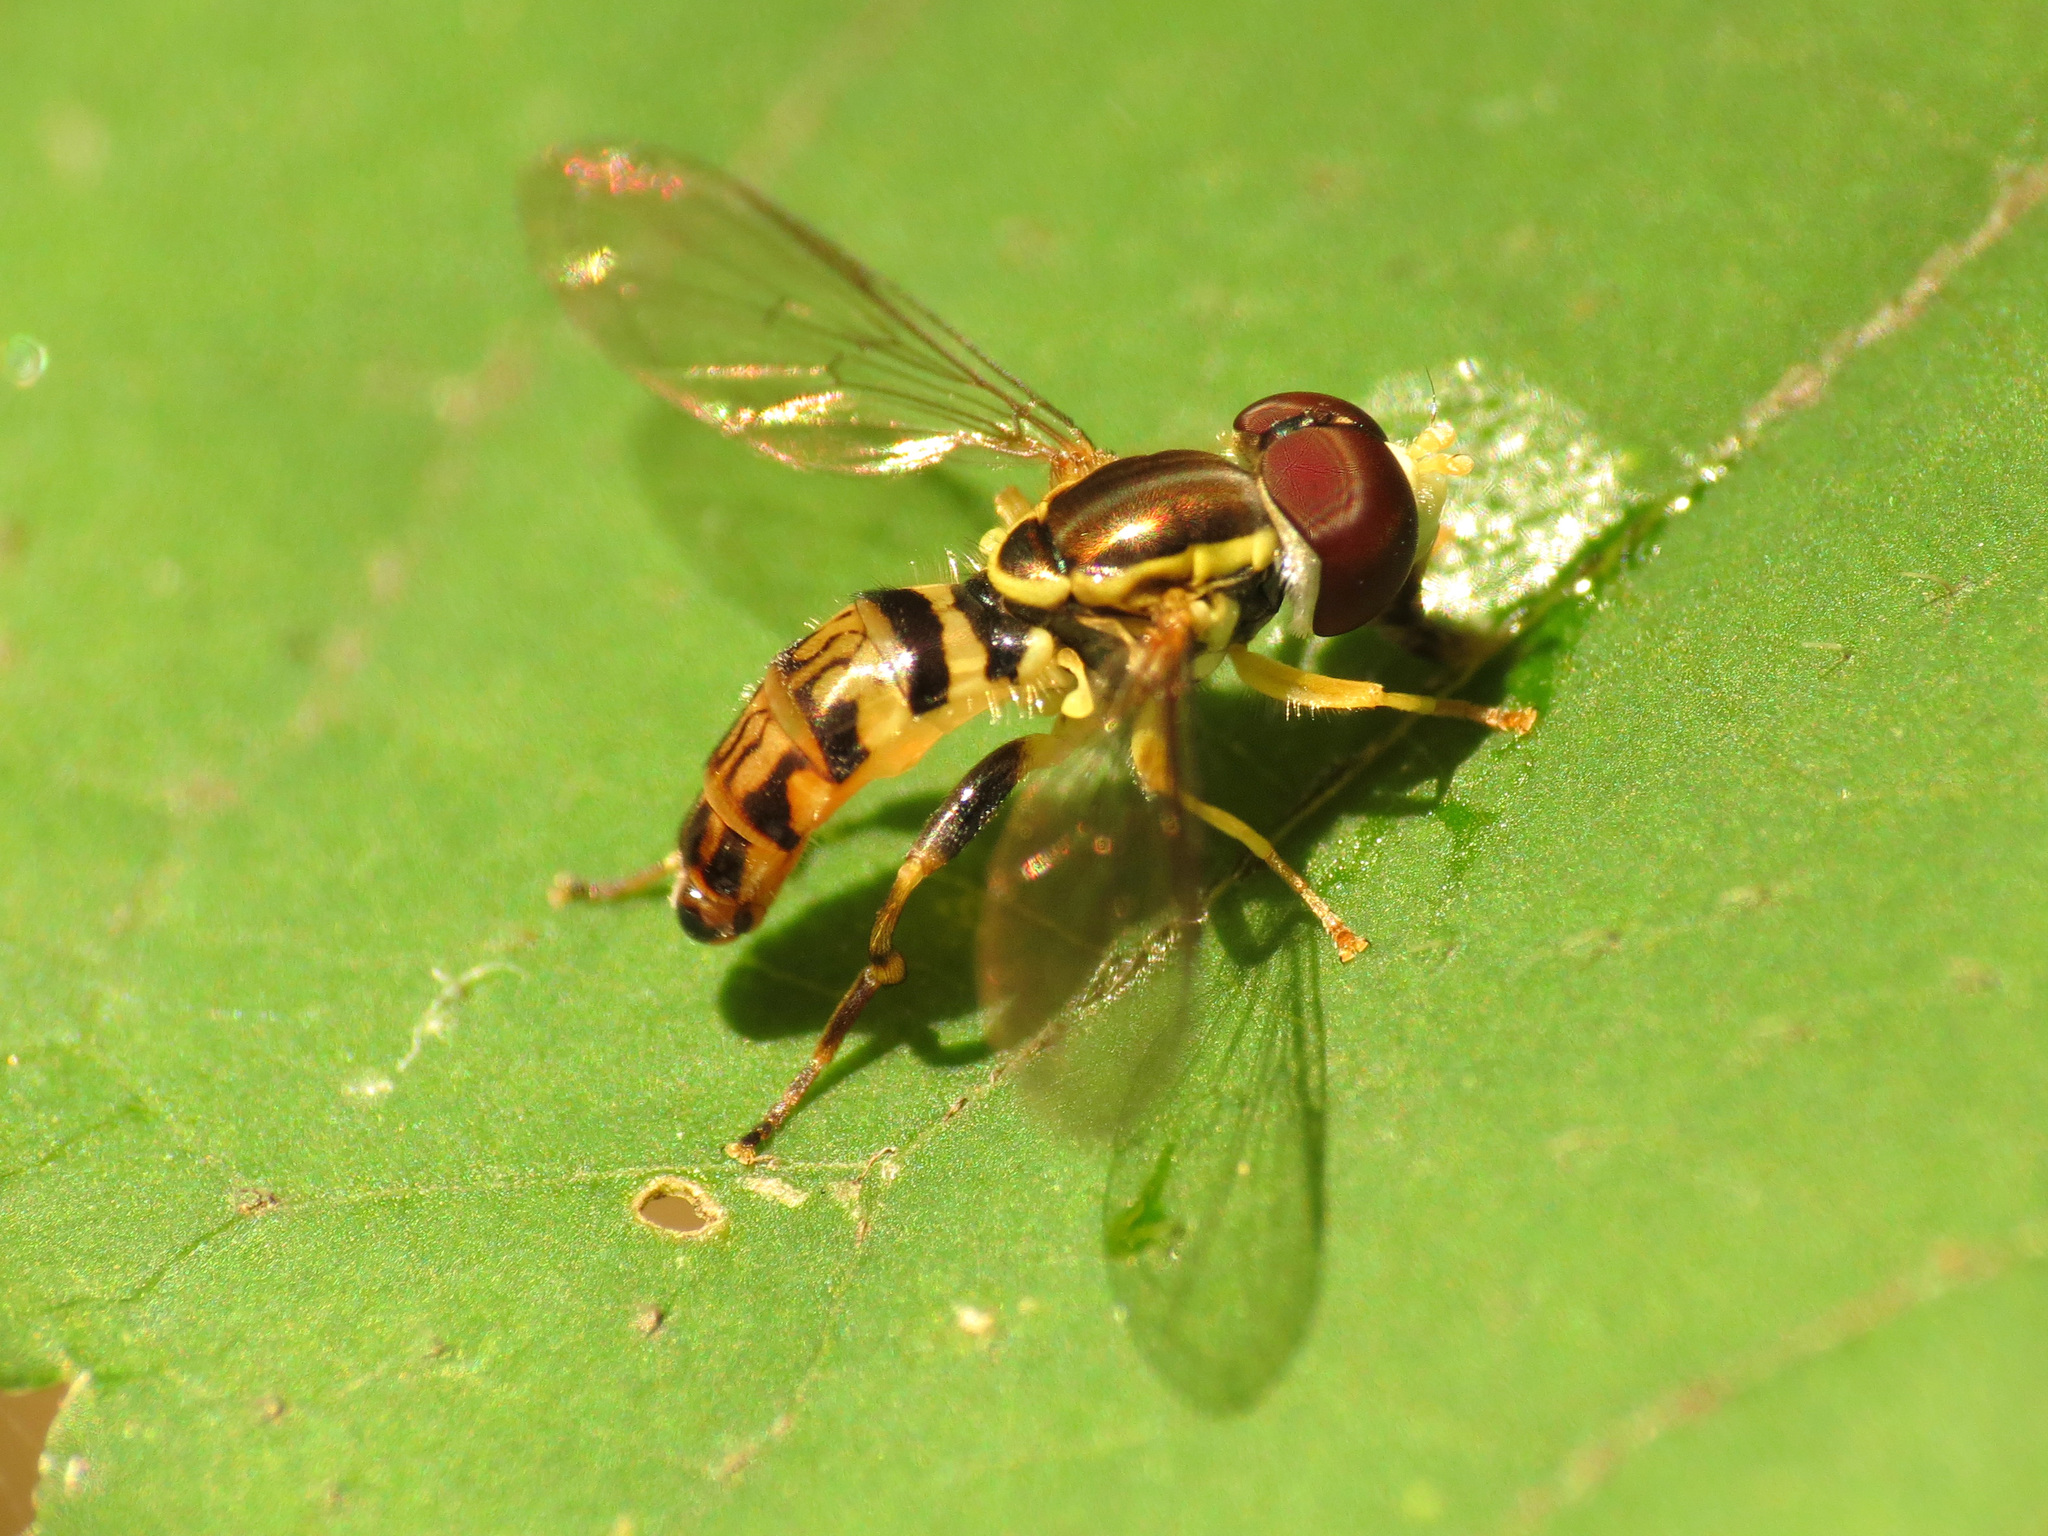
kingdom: Animalia
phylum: Arthropoda
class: Insecta
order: Diptera
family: Syrphidae
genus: Toxomerus
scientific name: Toxomerus geminatus
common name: Eastern calligrapher
